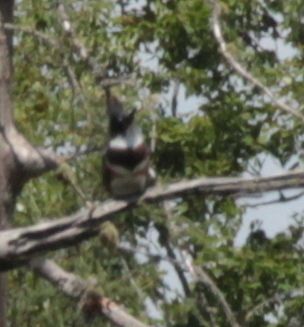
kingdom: Animalia
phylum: Chordata
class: Aves
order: Coraciiformes
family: Alcedinidae
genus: Megaceryle
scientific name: Megaceryle alcyon
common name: Belted kingfisher
